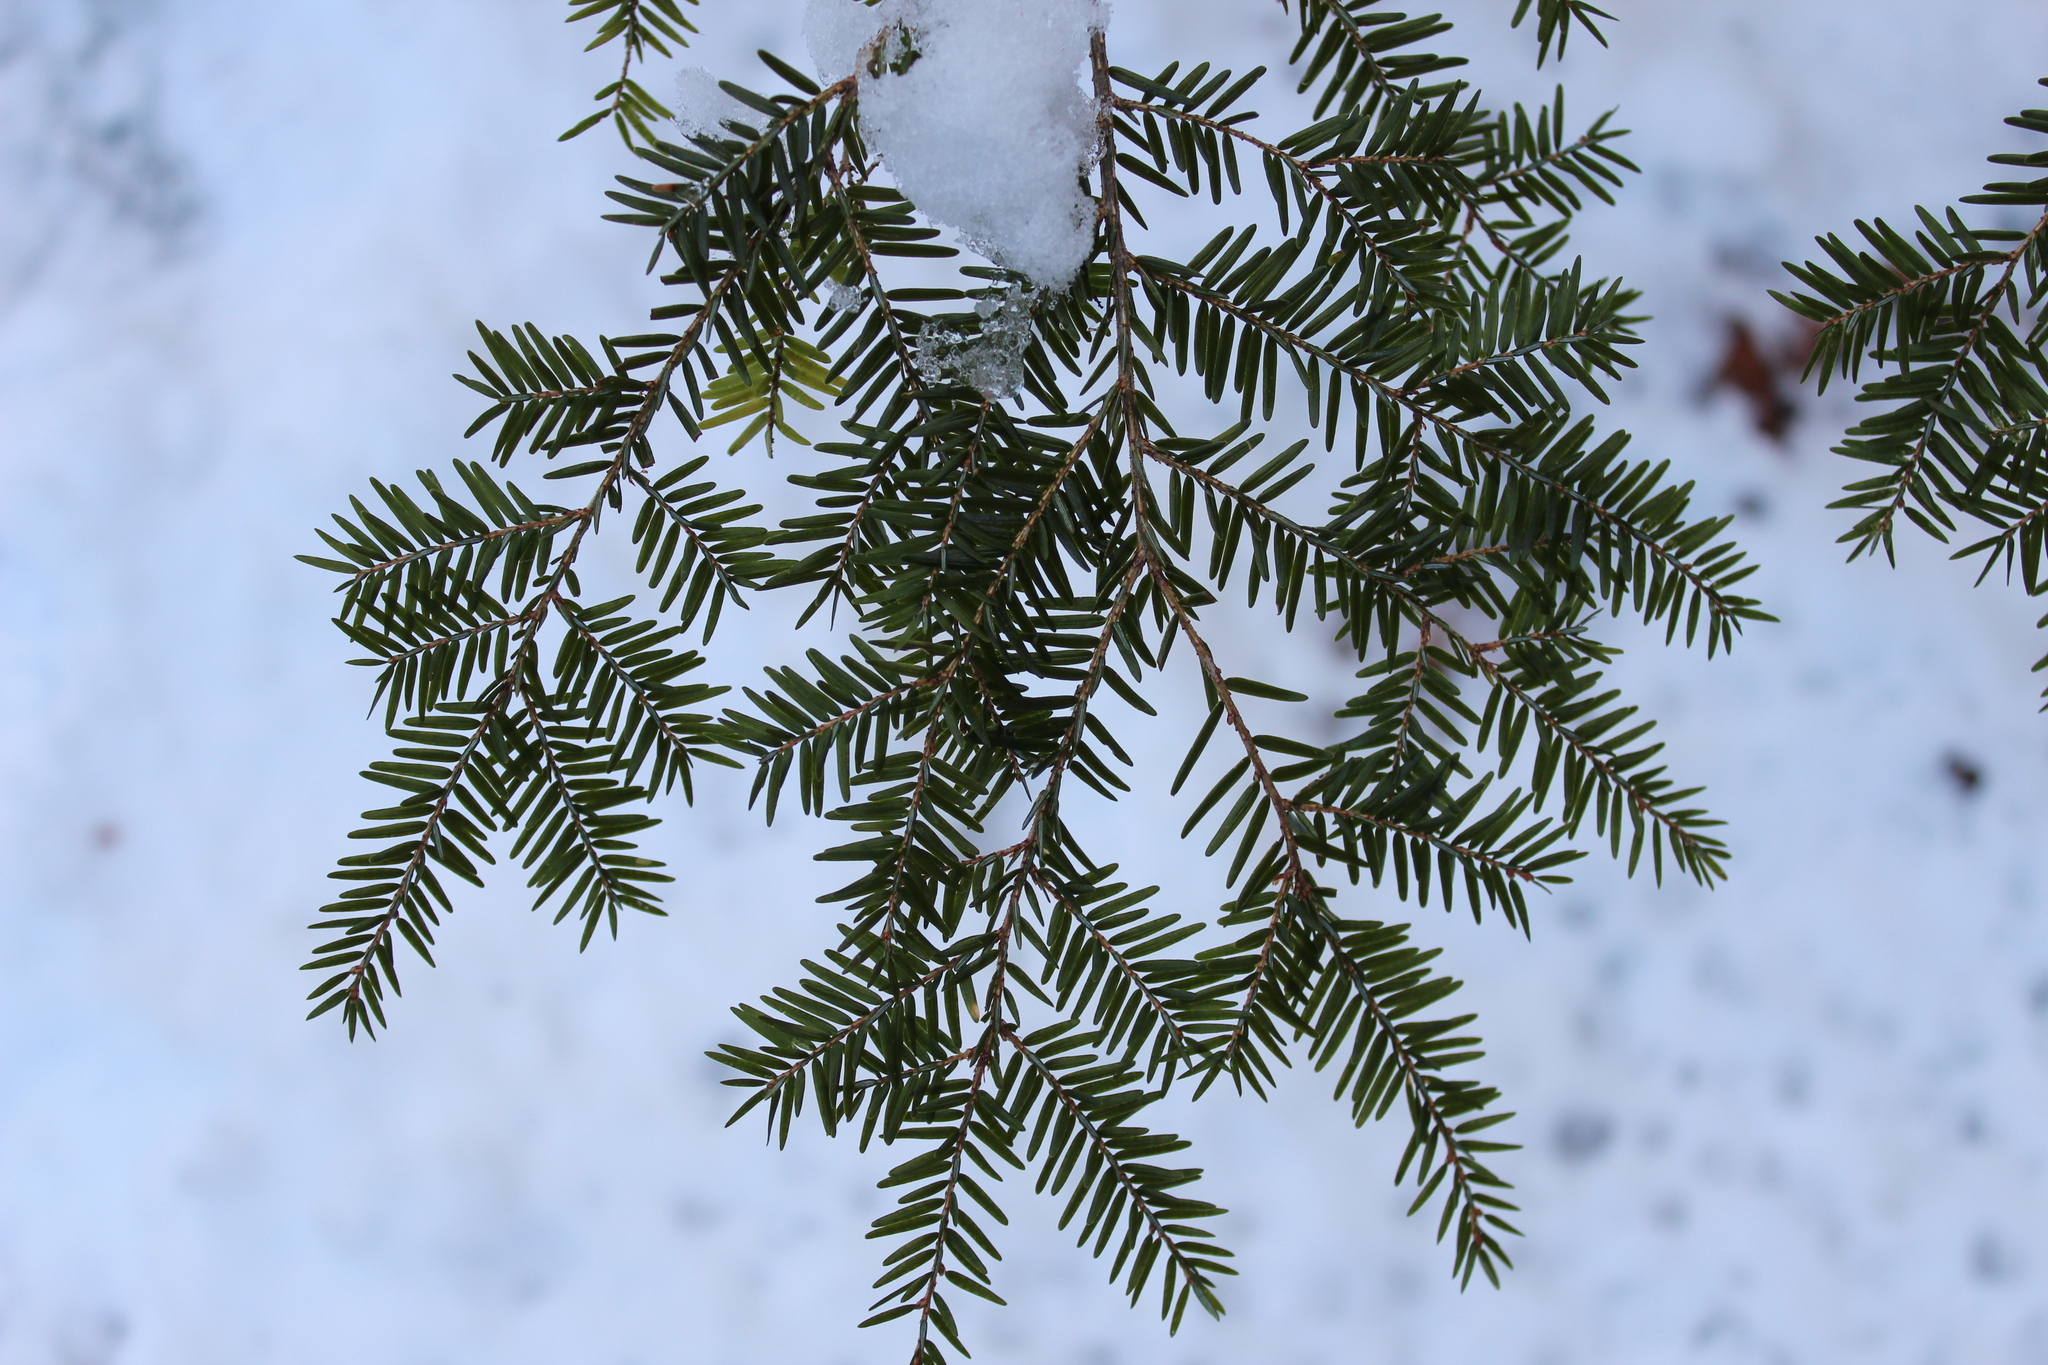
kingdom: Plantae
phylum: Tracheophyta
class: Pinopsida
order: Pinales
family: Pinaceae
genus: Tsuga
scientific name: Tsuga canadensis
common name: Eastern hemlock
